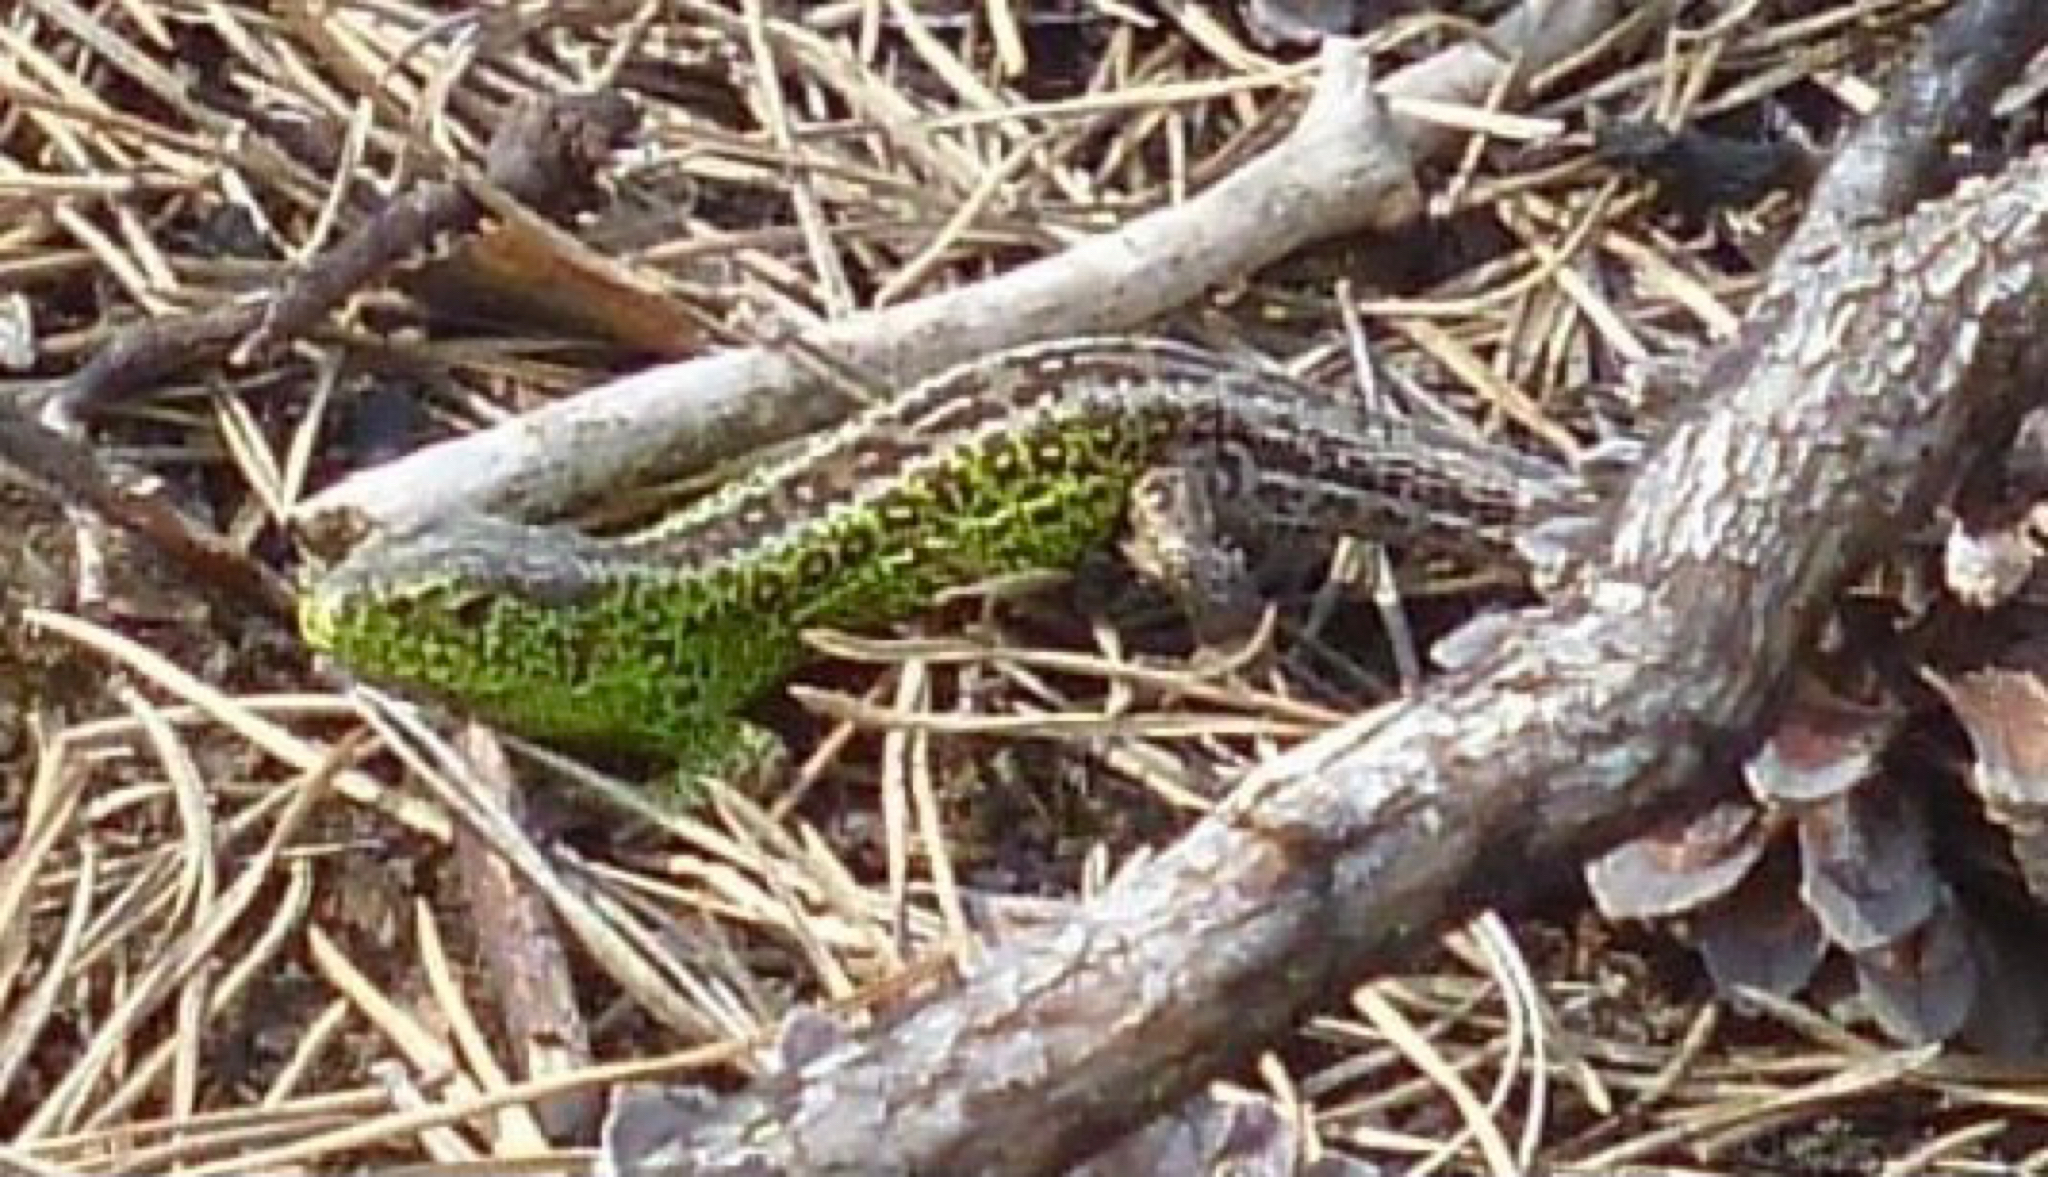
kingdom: Animalia
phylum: Chordata
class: Squamata
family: Lacertidae
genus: Lacerta
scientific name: Lacerta agilis
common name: Sand lizard
